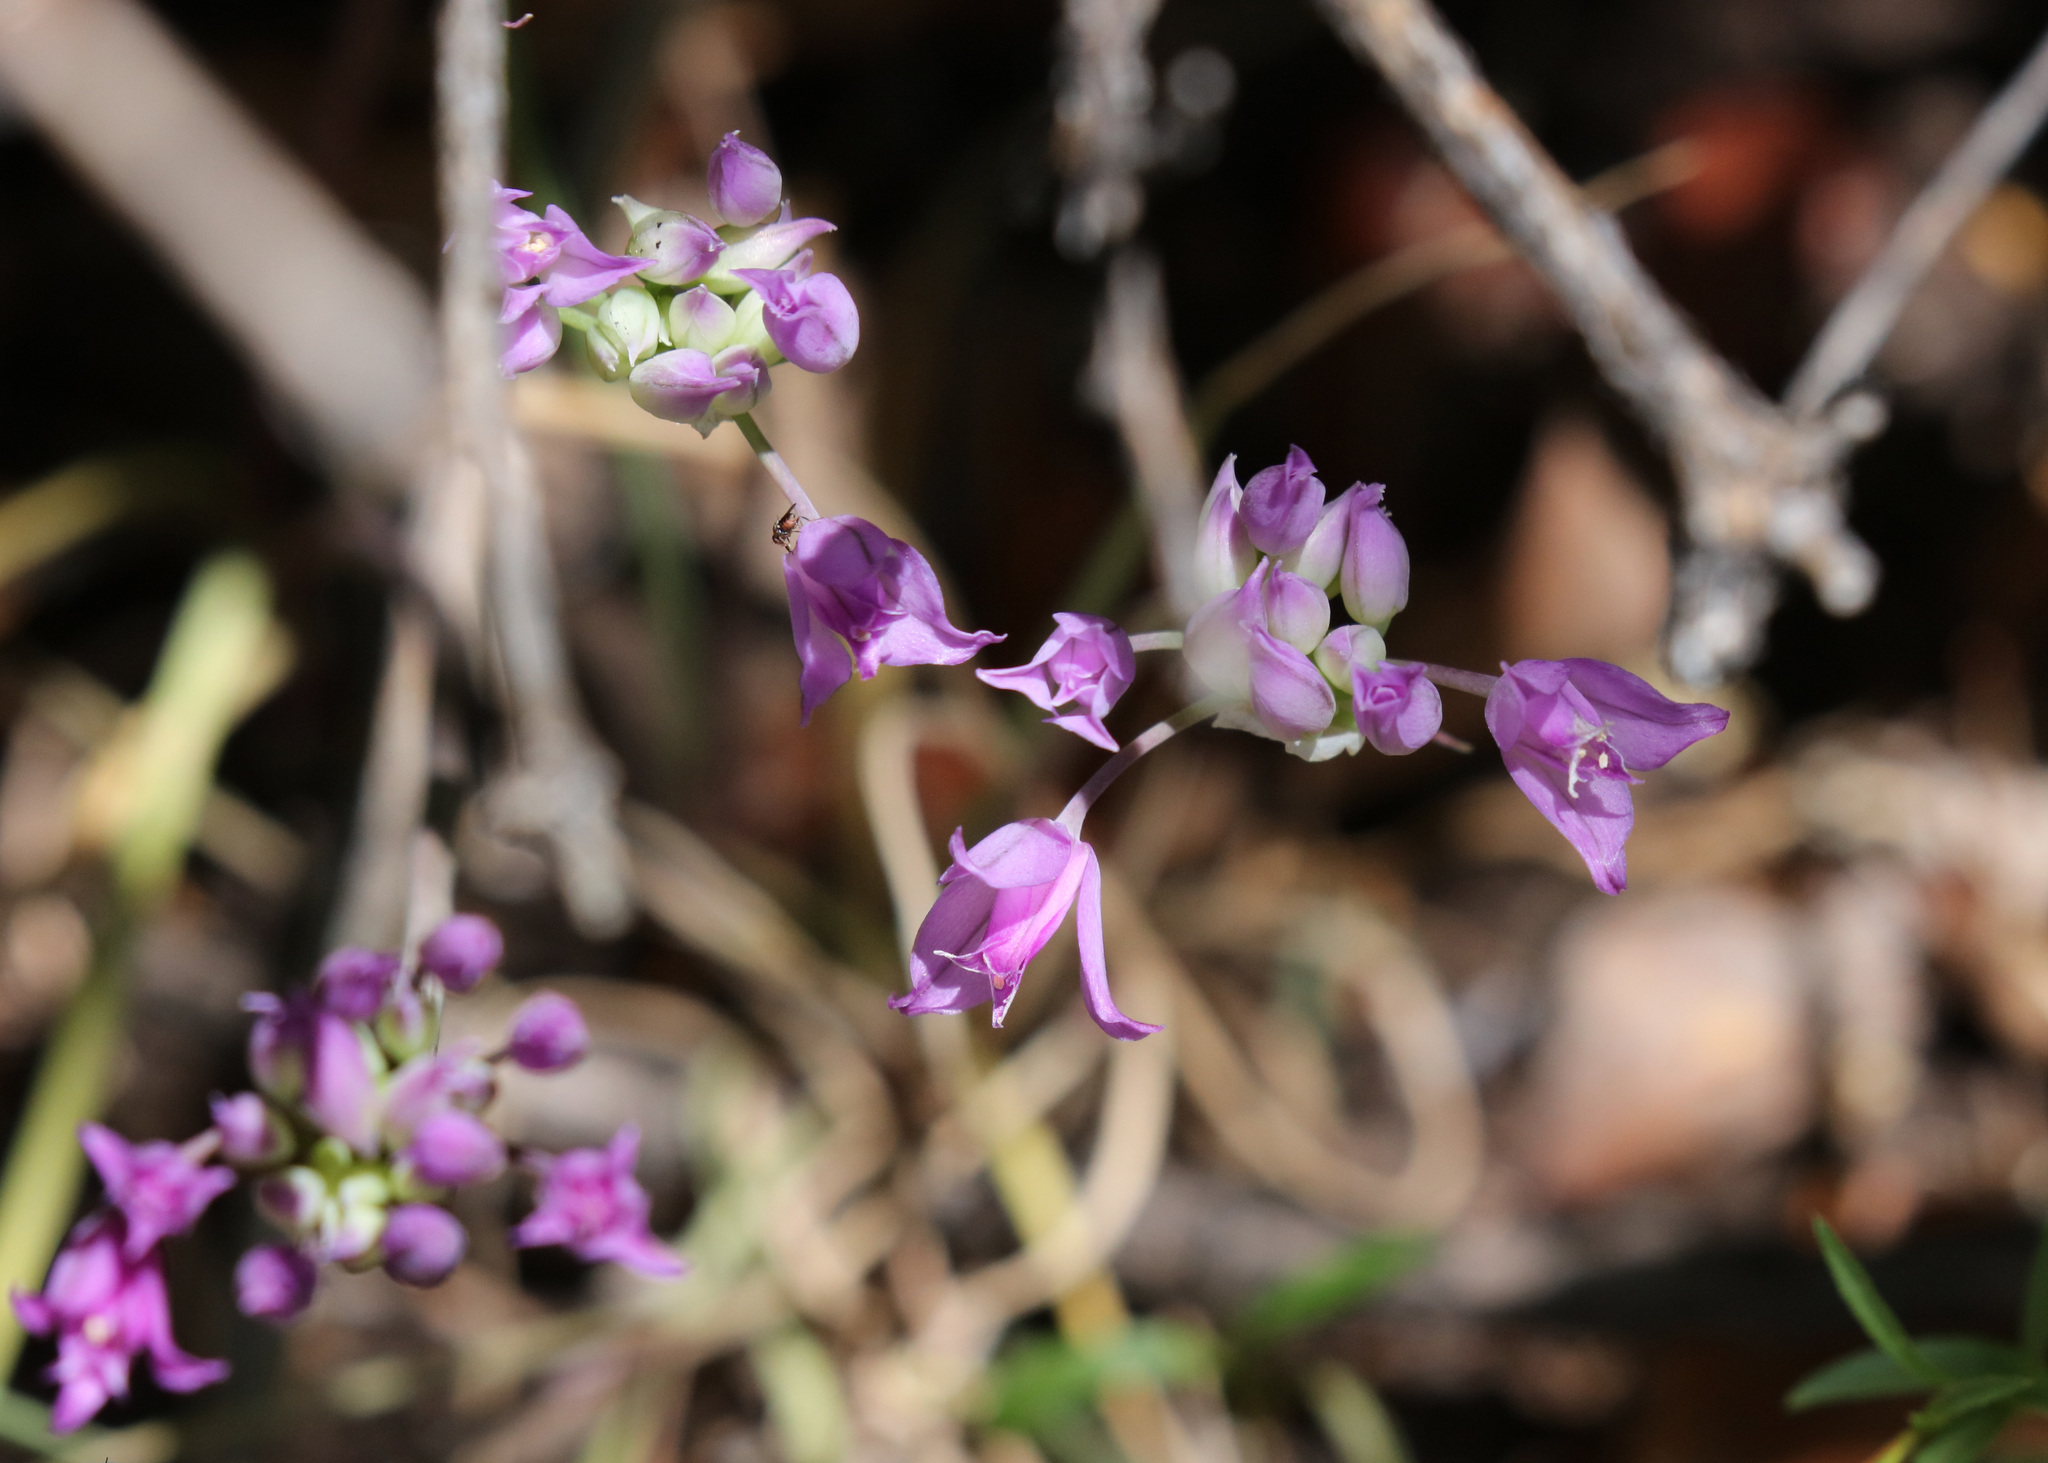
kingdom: Plantae
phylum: Tracheophyta
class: Liliopsida
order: Asparagales
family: Amaryllidaceae
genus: Allium
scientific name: Allium acuminatum
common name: Hooker's onion
